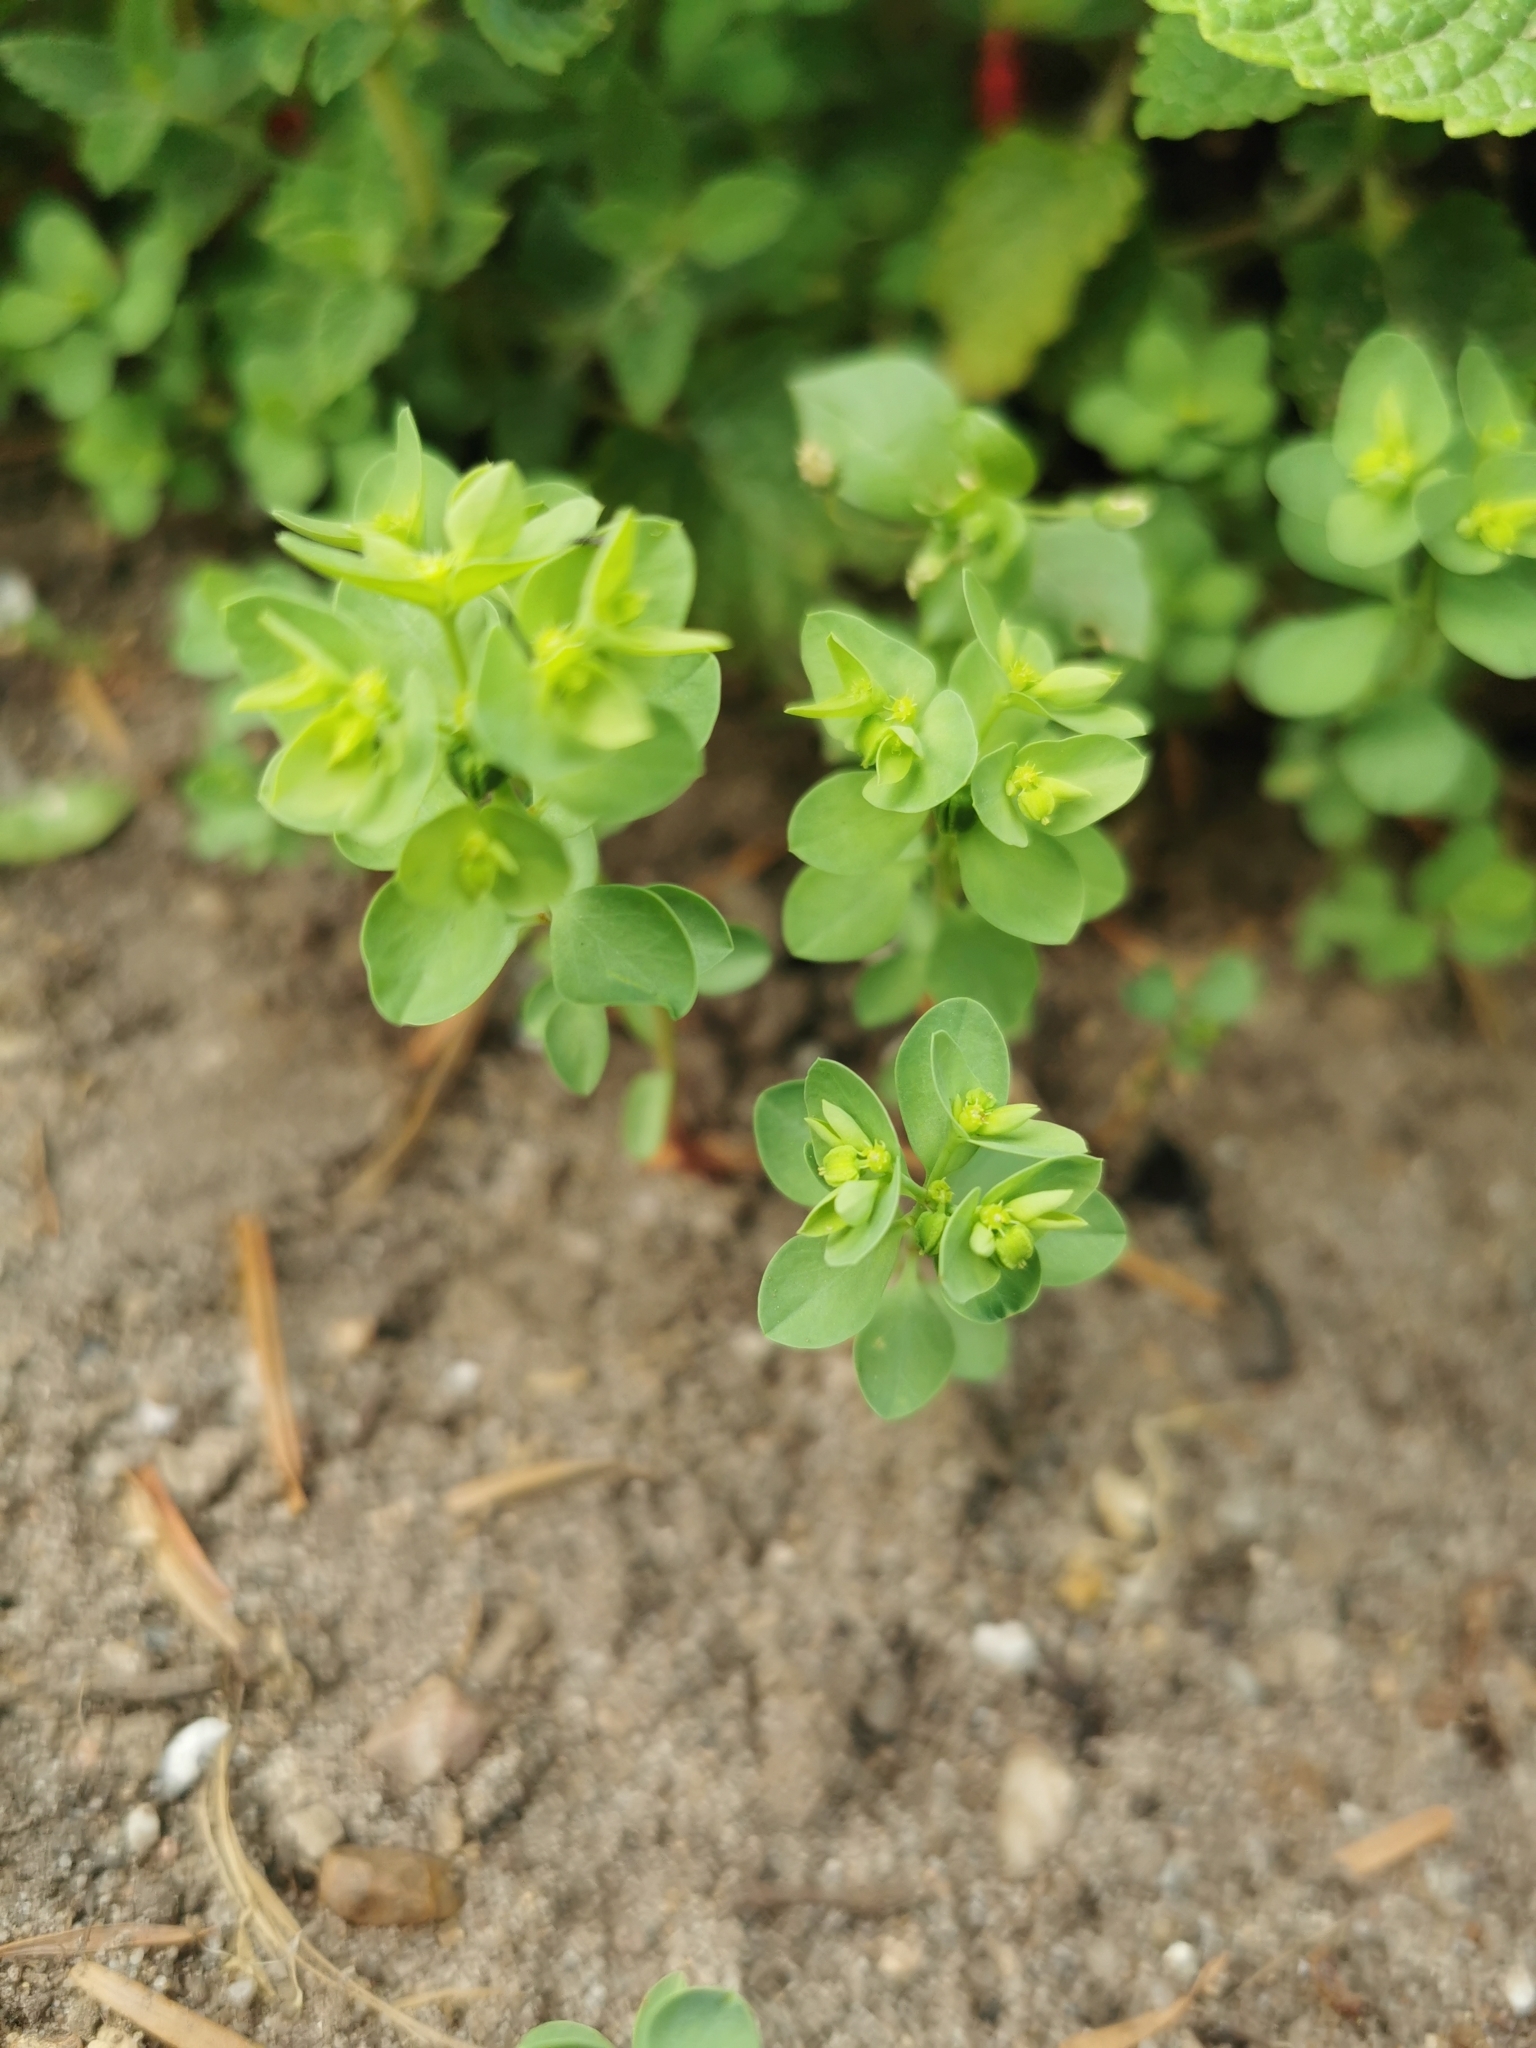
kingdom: Plantae
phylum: Tracheophyta
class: Magnoliopsida
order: Malpighiales
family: Euphorbiaceae
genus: Euphorbia
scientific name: Euphorbia peplus
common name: Petty spurge
